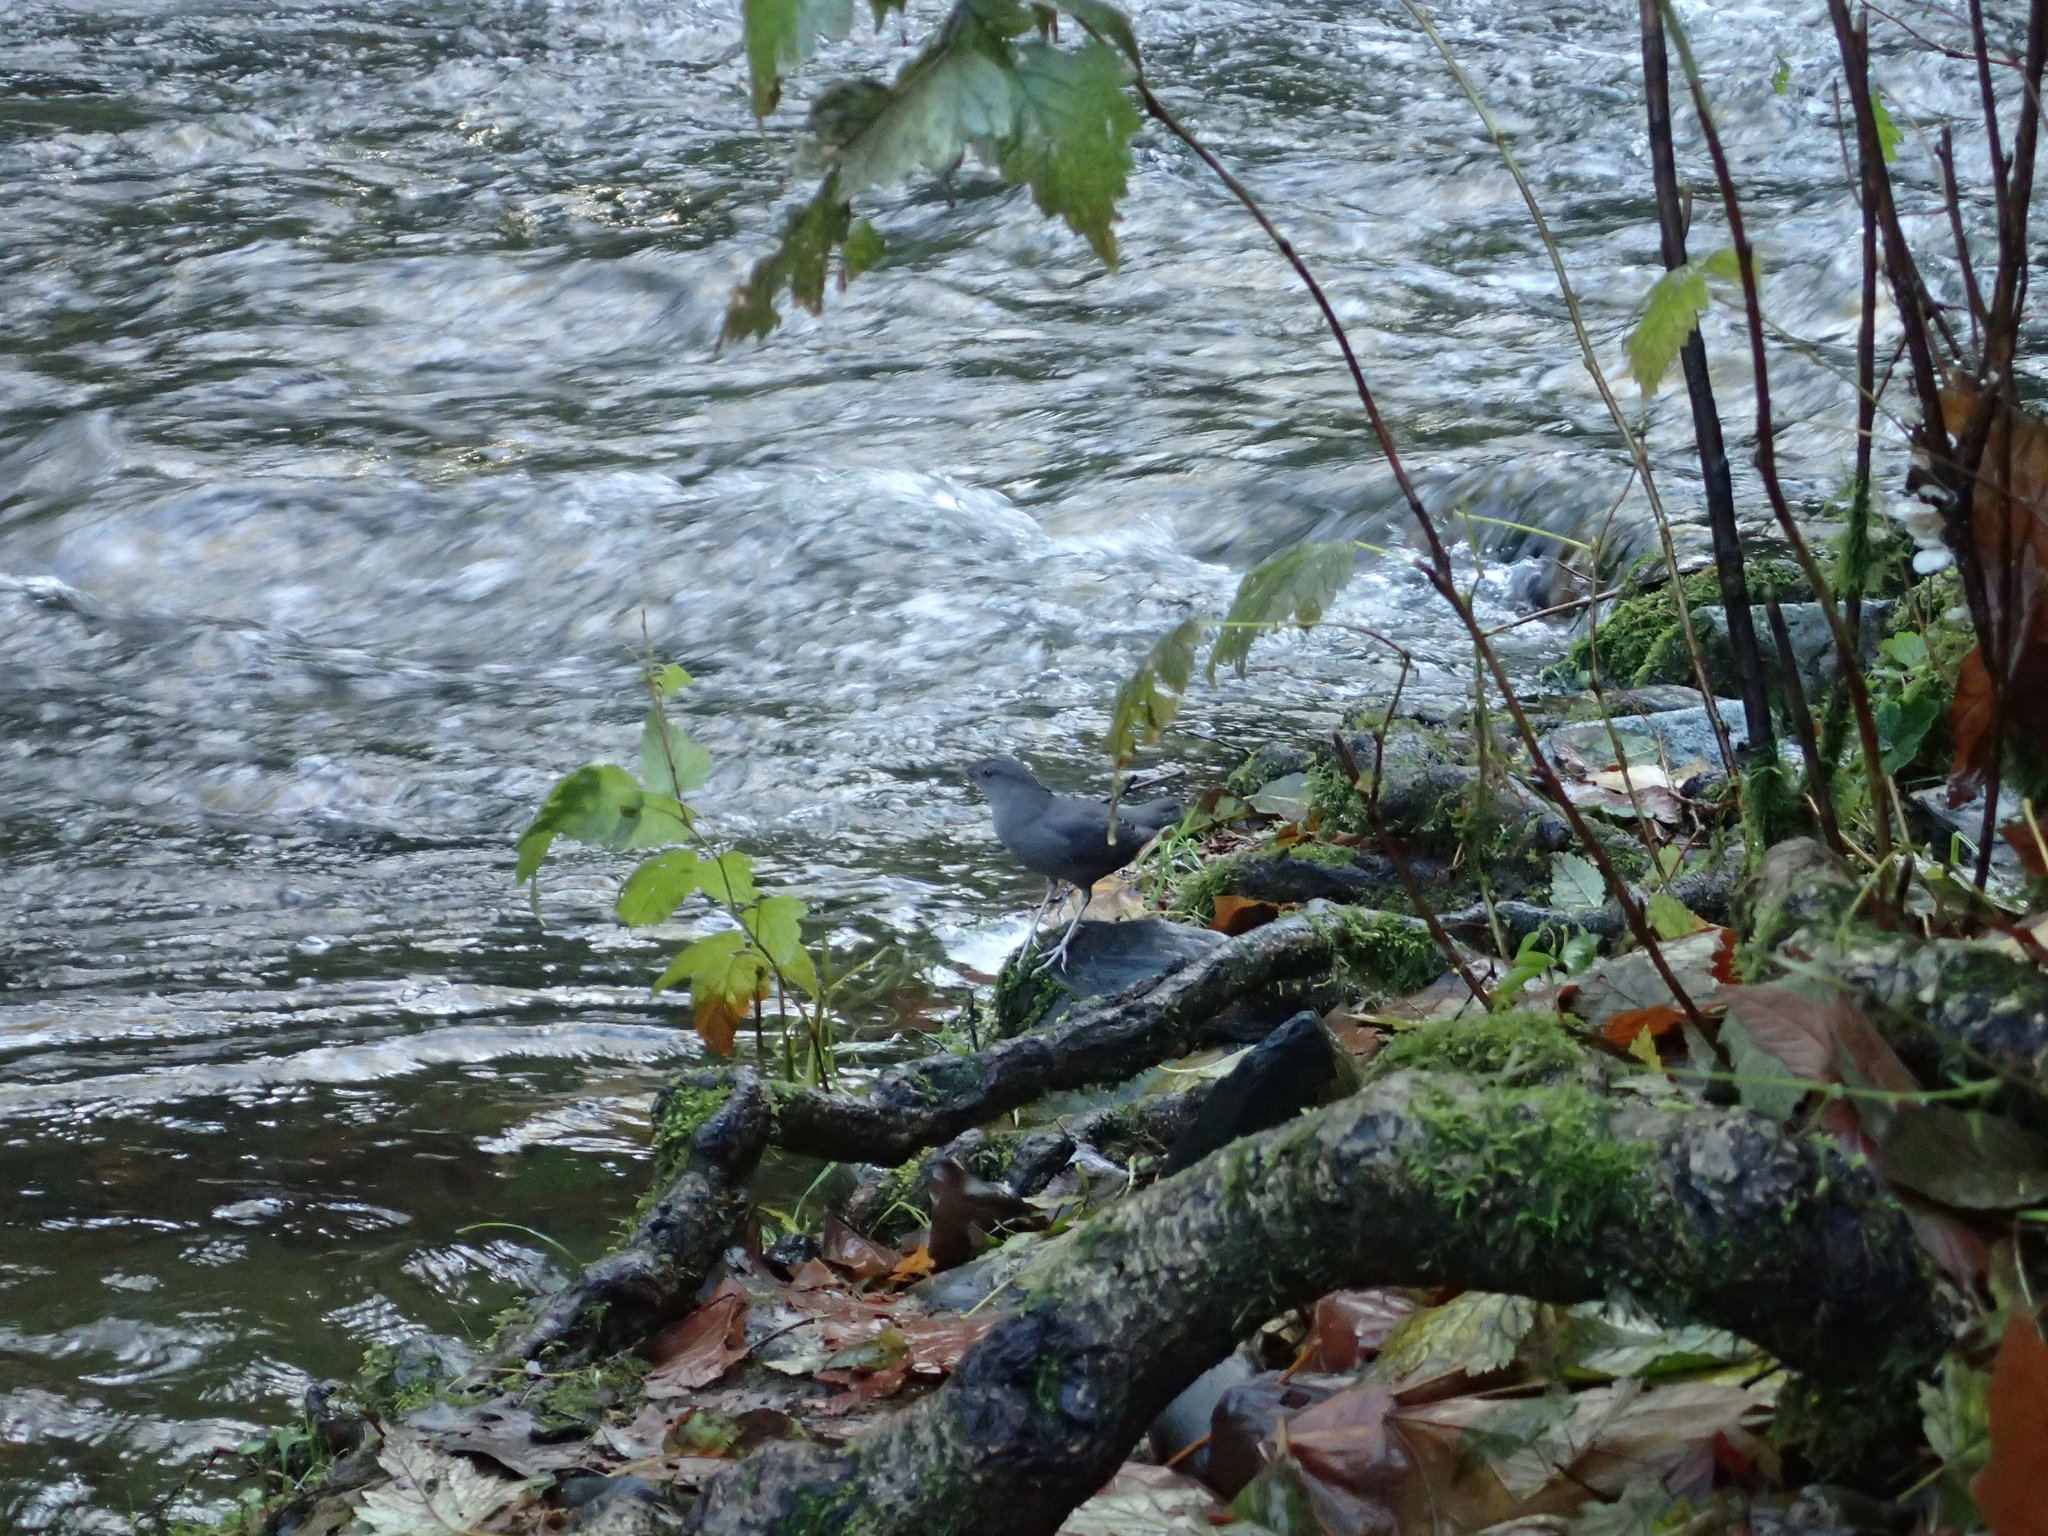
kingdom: Animalia
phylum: Chordata
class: Aves
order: Passeriformes
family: Cinclidae
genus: Cinclus
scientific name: Cinclus mexicanus
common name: American dipper
